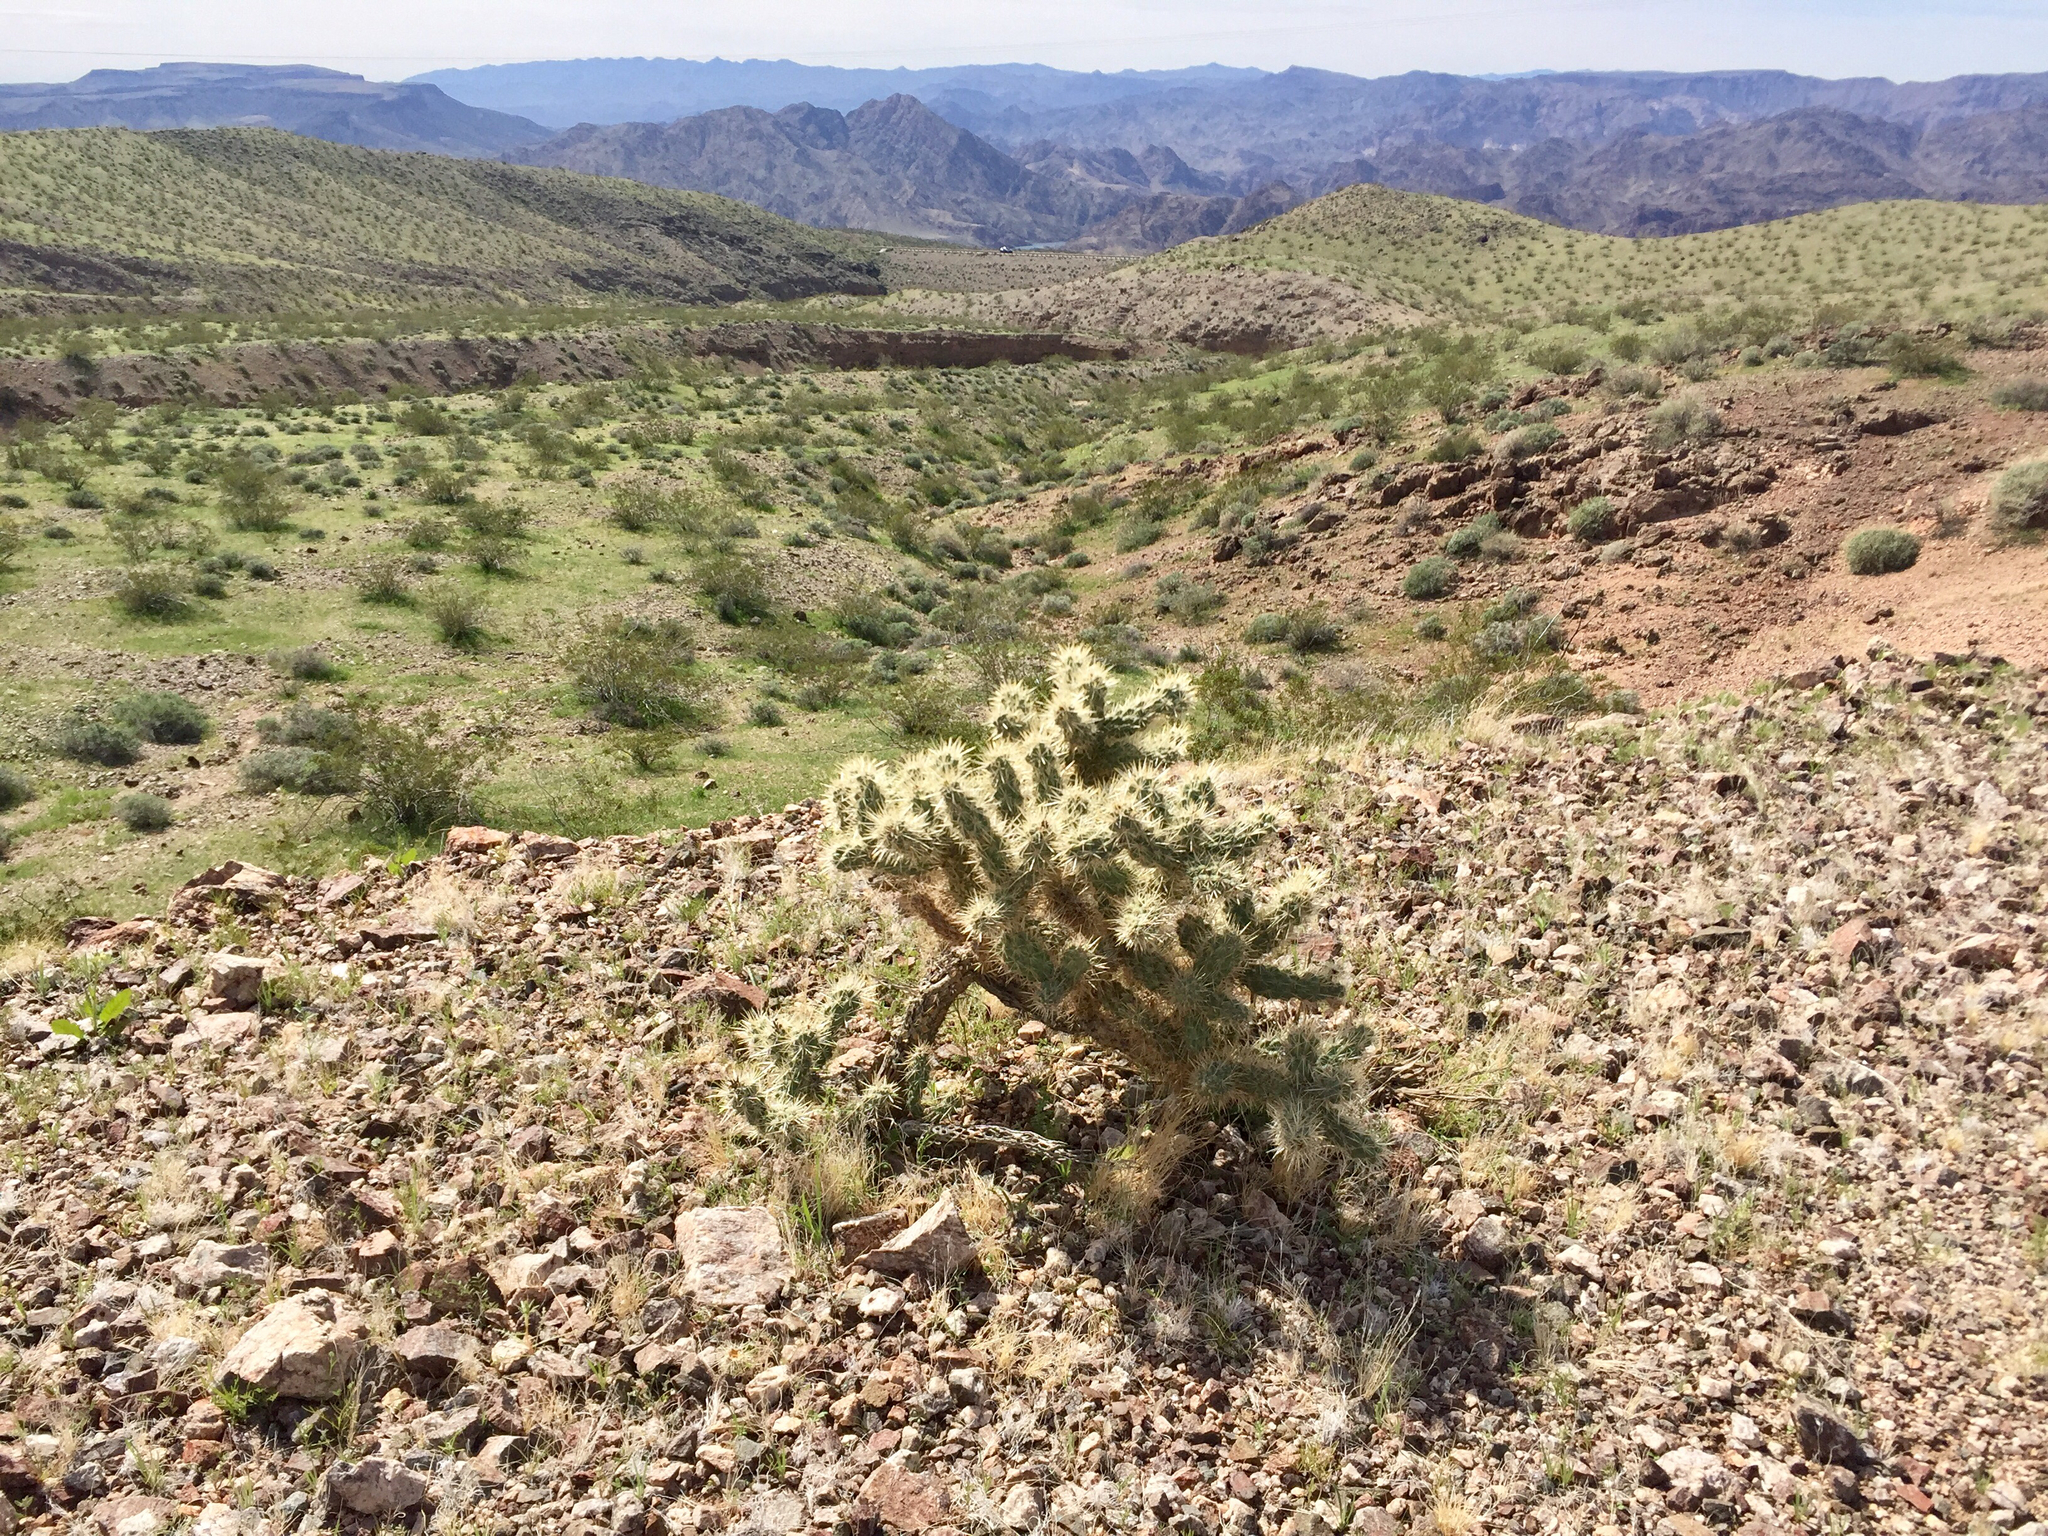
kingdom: Plantae
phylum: Tracheophyta
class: Magnoliopsida
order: Caryophyllales
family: Cactaceae
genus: Cylindropuntia
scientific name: Cylindropuntia echinocarpa
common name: Ground cholla
